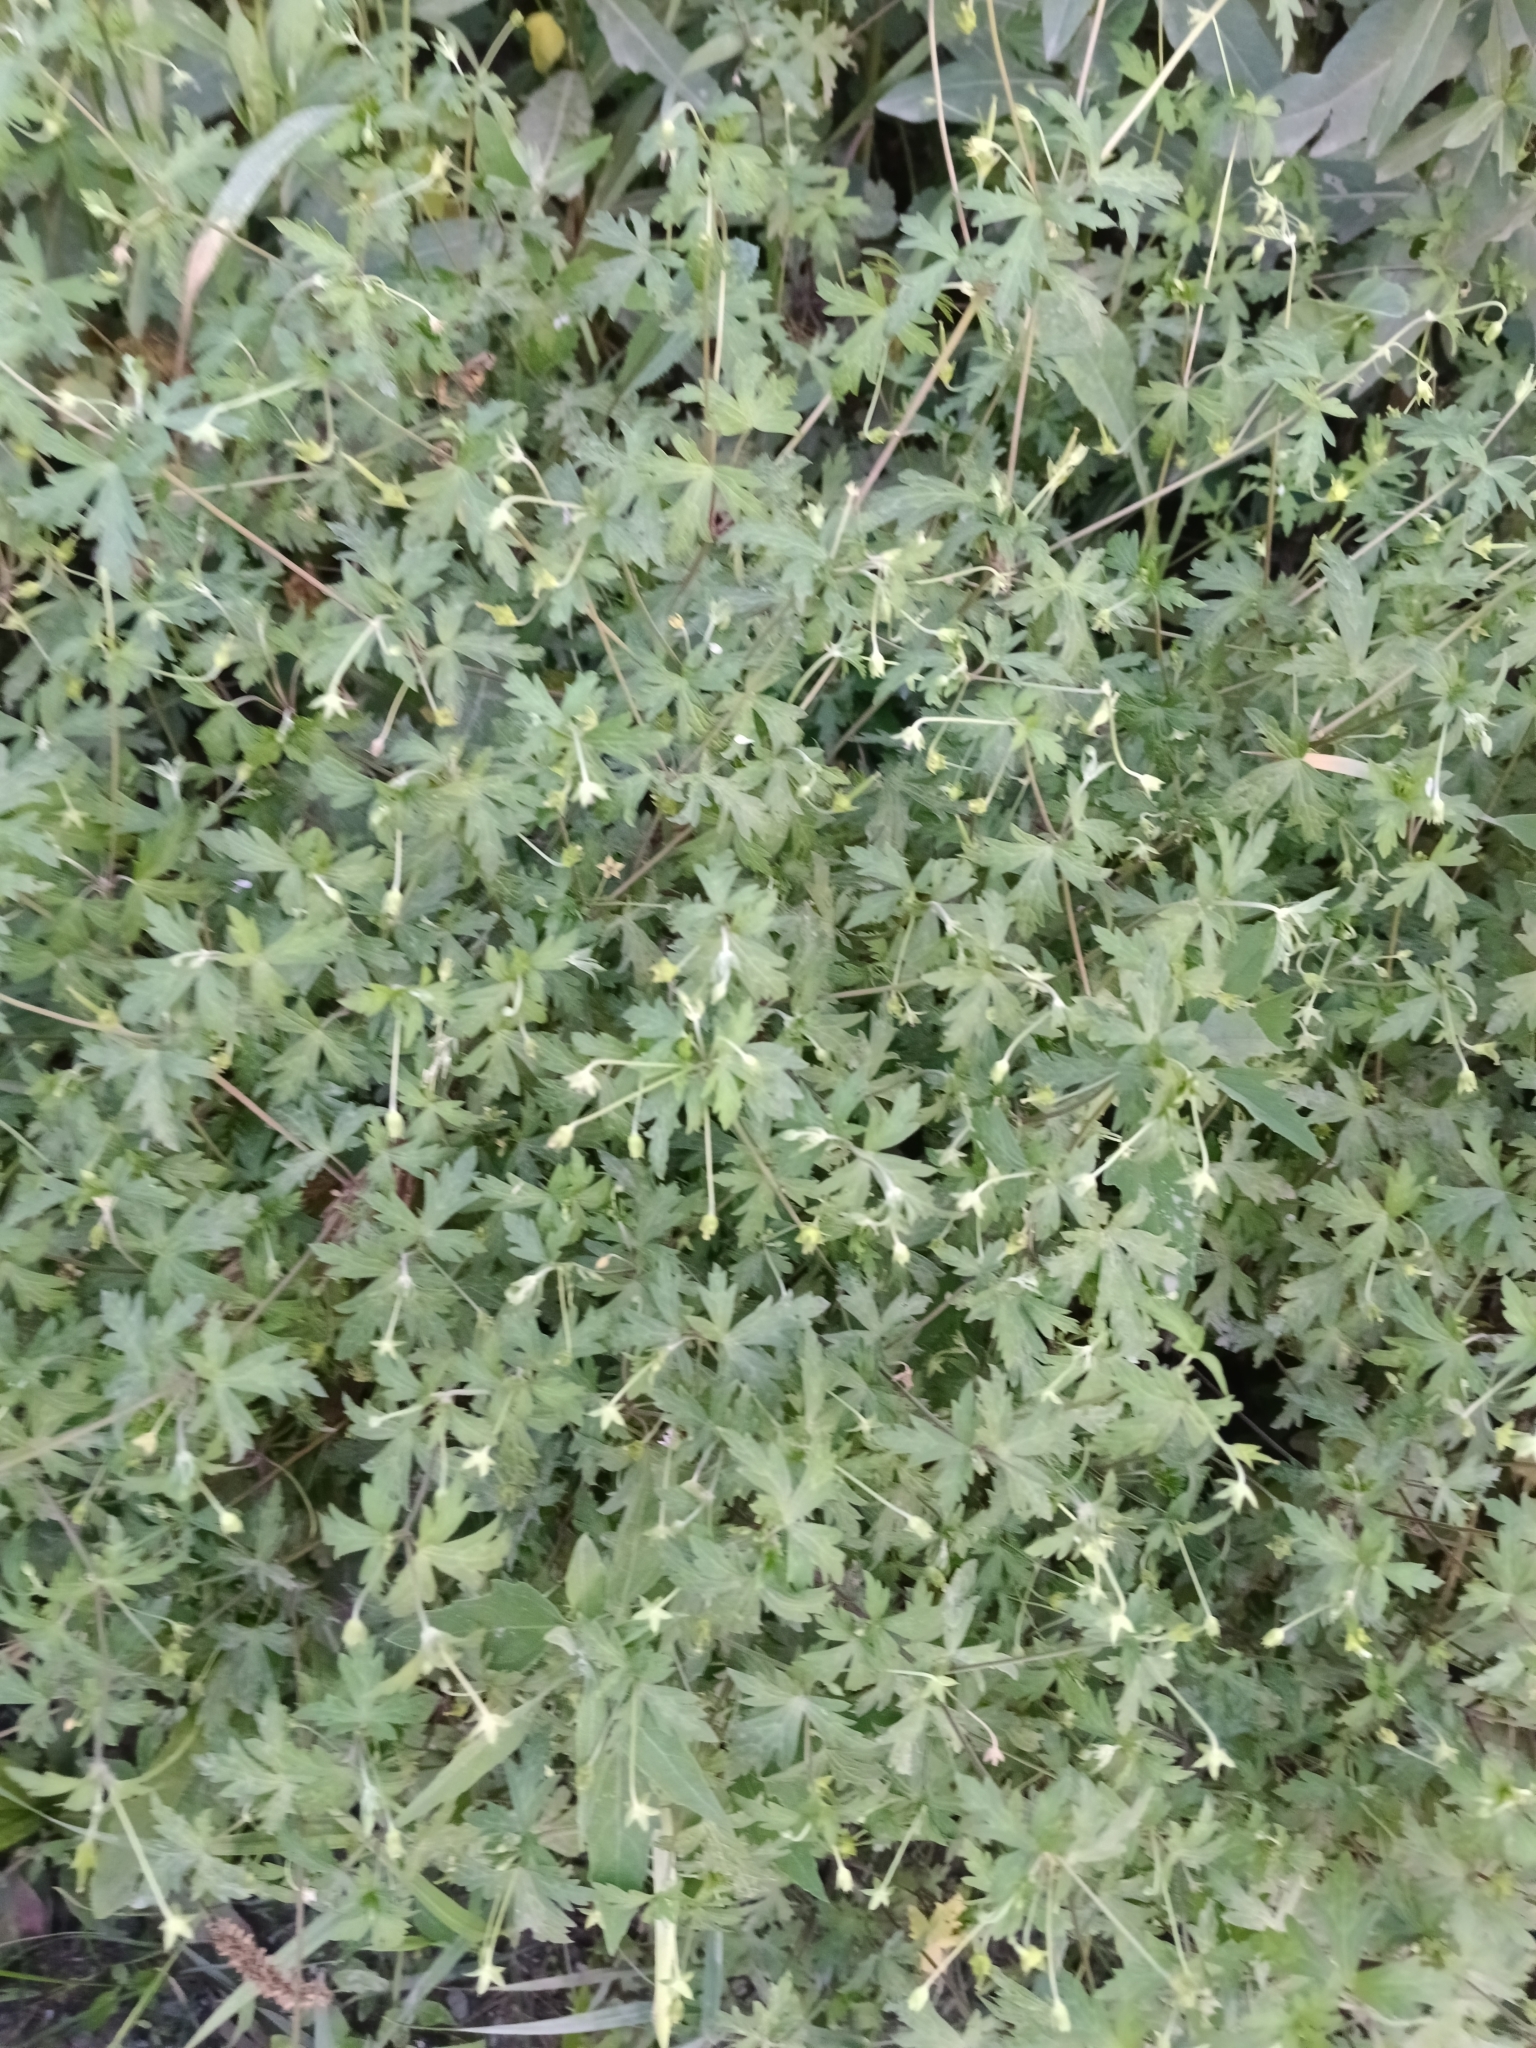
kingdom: Plantae
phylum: Tracheophyta
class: Magnoliopsida
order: Geraniales
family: Geraniaceae
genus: Geranium
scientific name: Geranium sibiricum
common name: Siberian crane's-bill
